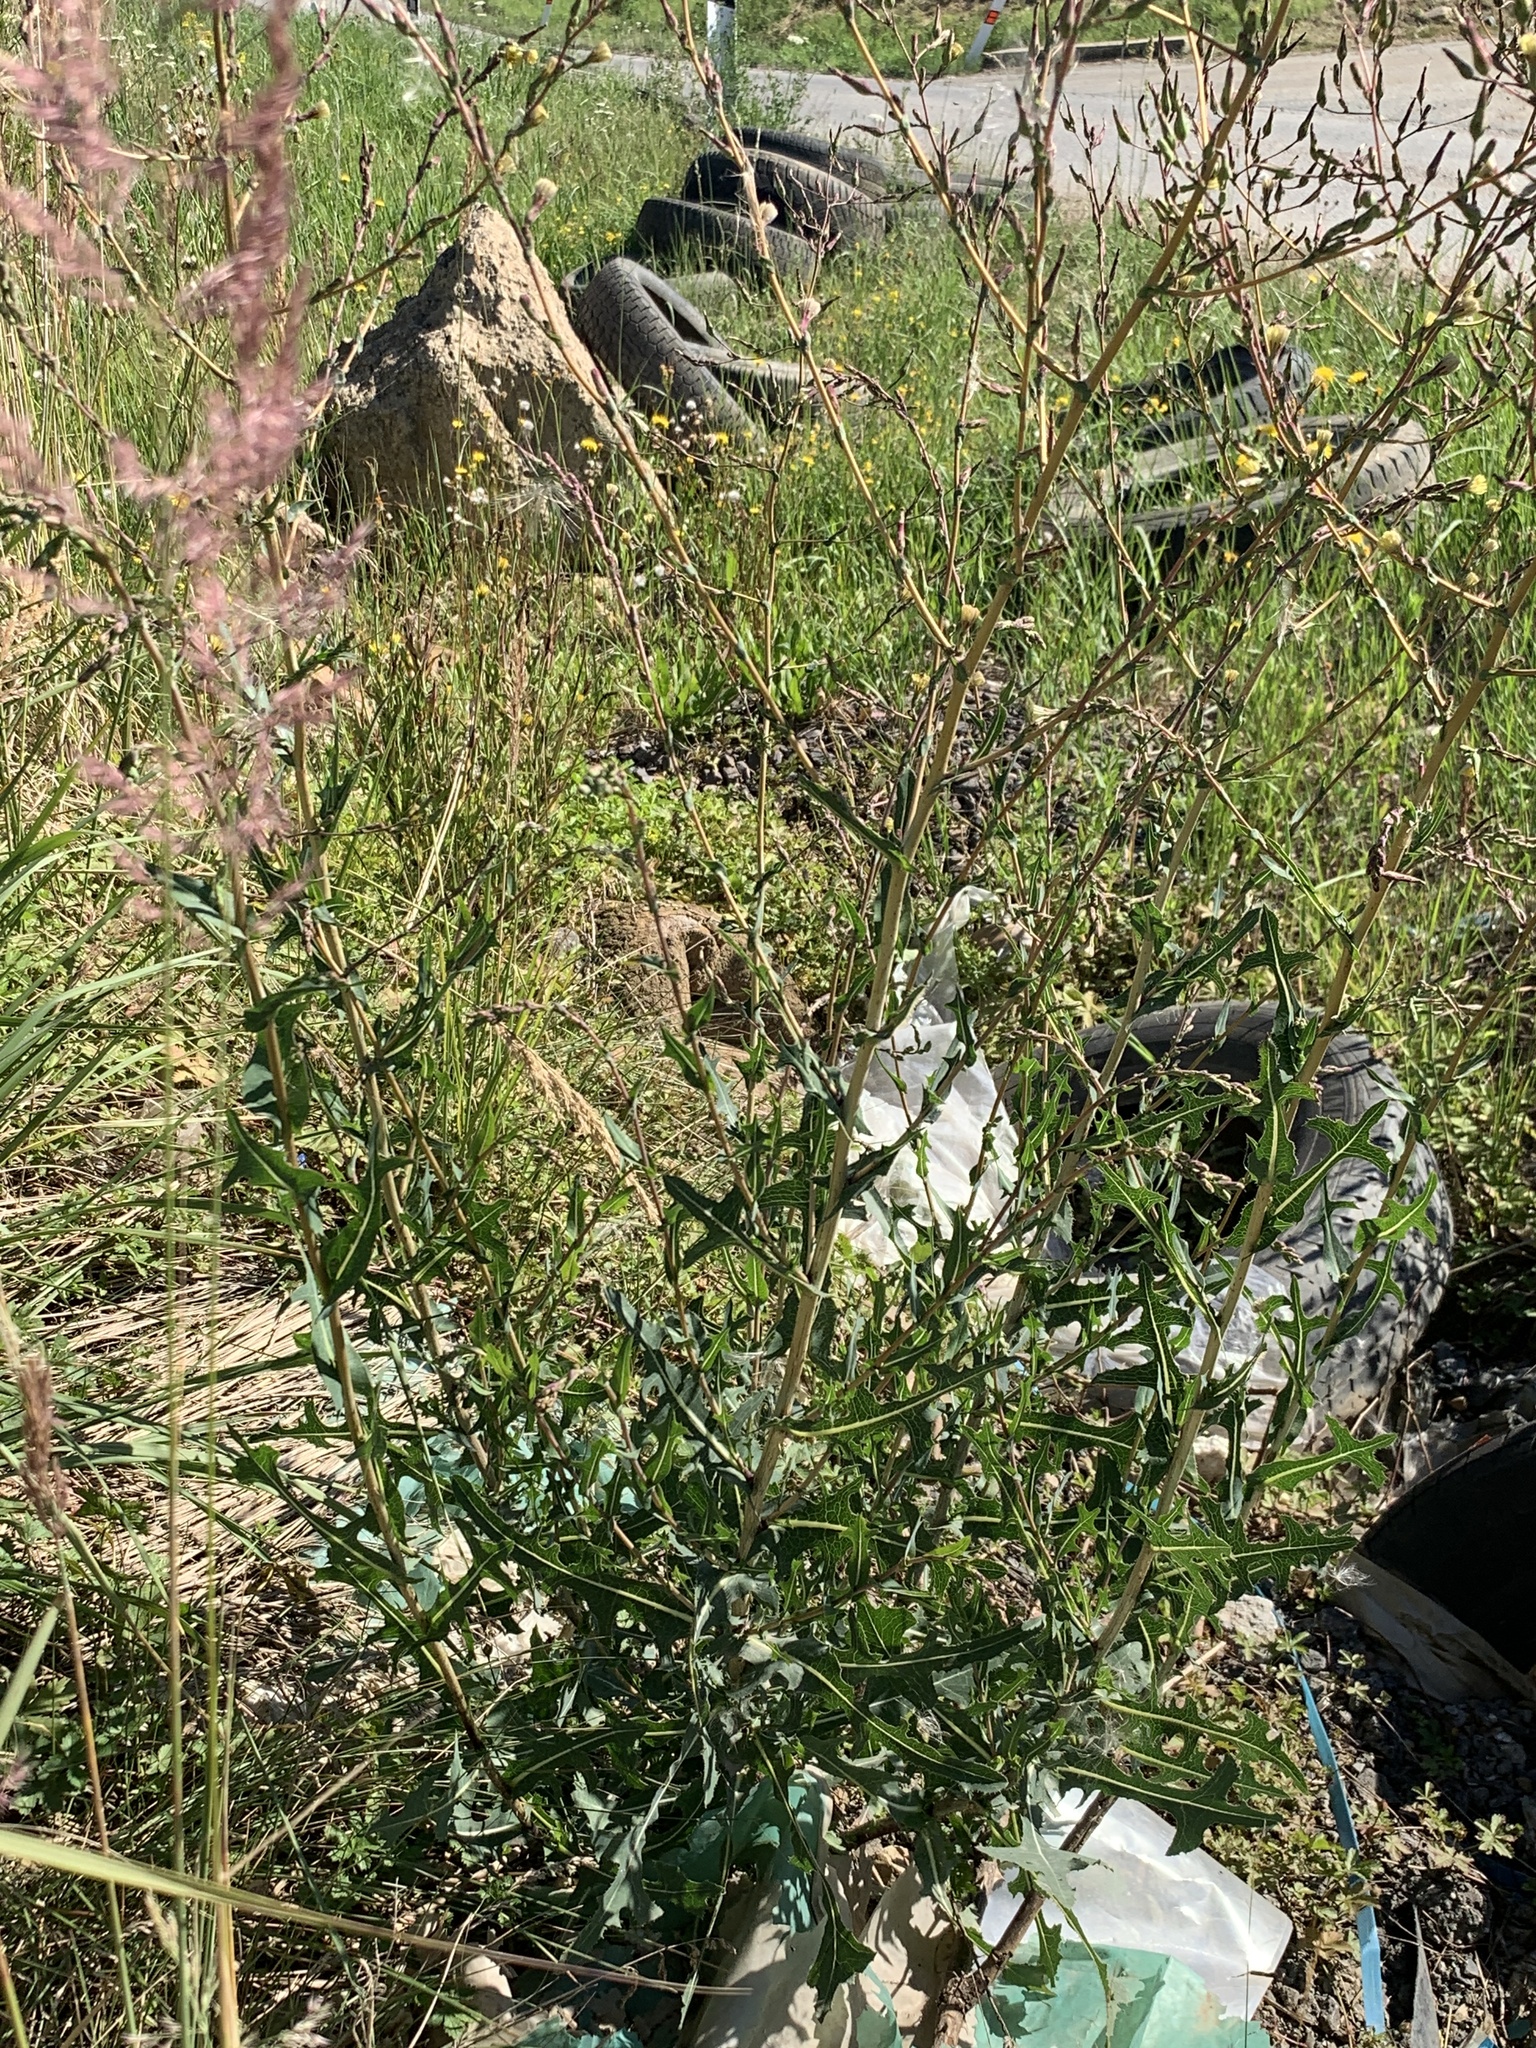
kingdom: Plantae
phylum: Tracheophyta
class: Magnoliopsida
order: Asterales
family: Asteraceae
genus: Lactuca
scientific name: Lactuca serriola
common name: Prickly lettuce
